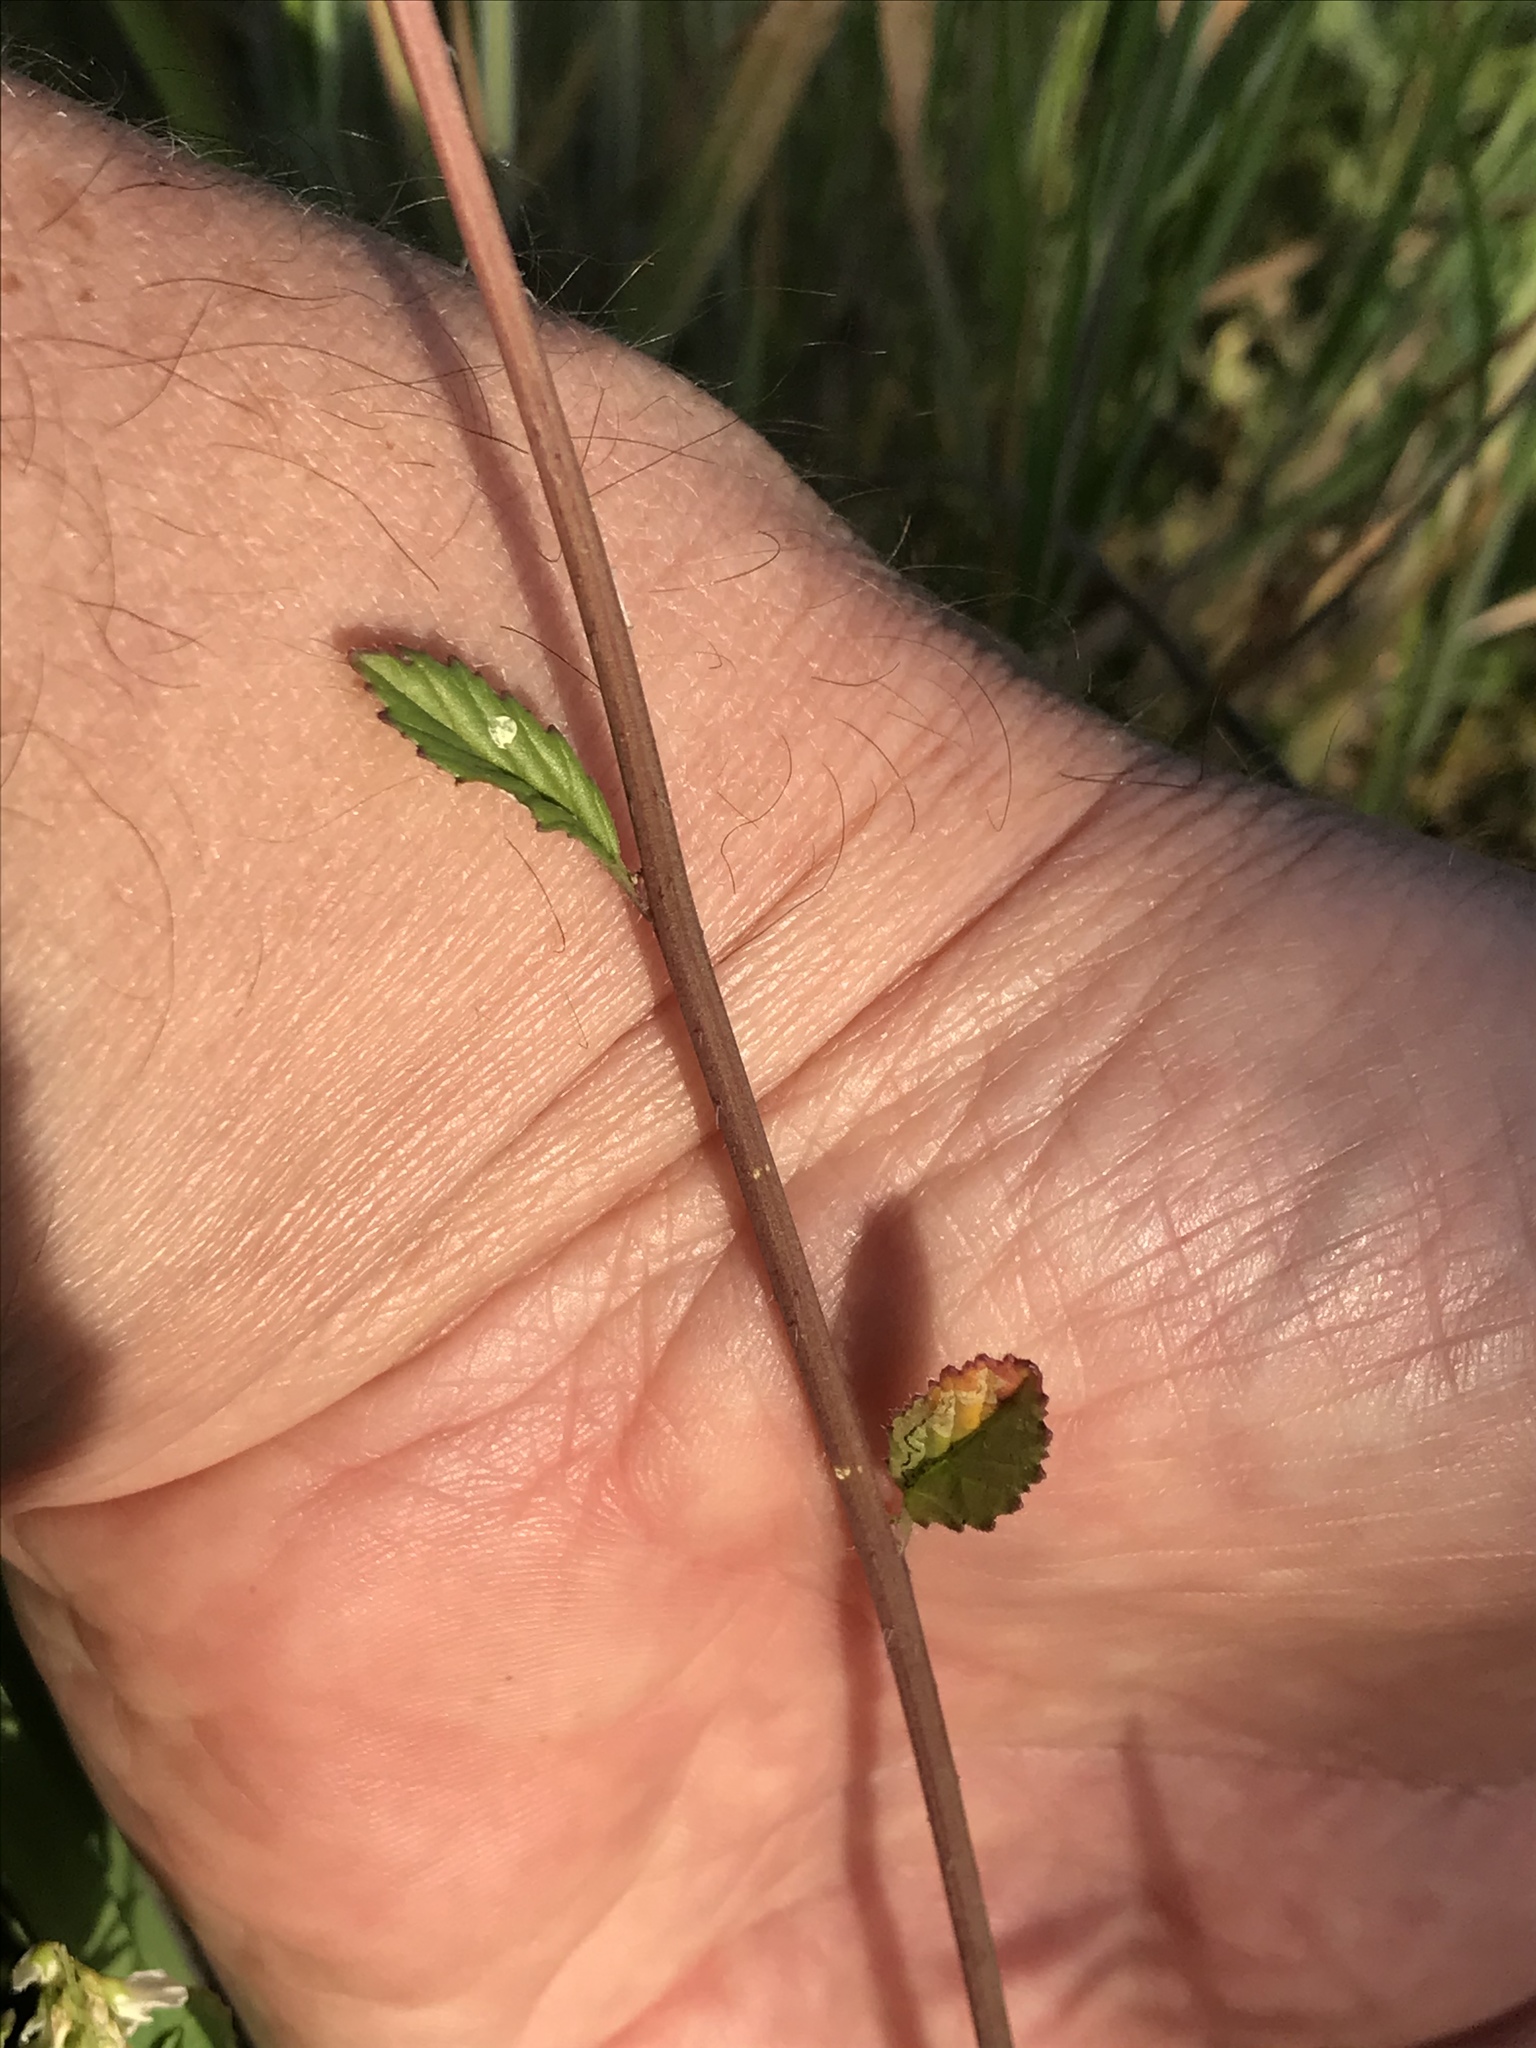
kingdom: Plantae
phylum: Tracheophyta
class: Magnoliopsida
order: Brassicales
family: Brassicaceae
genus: Rapistrum
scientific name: Rapistrum rugosum
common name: Annual bastardcabbage
